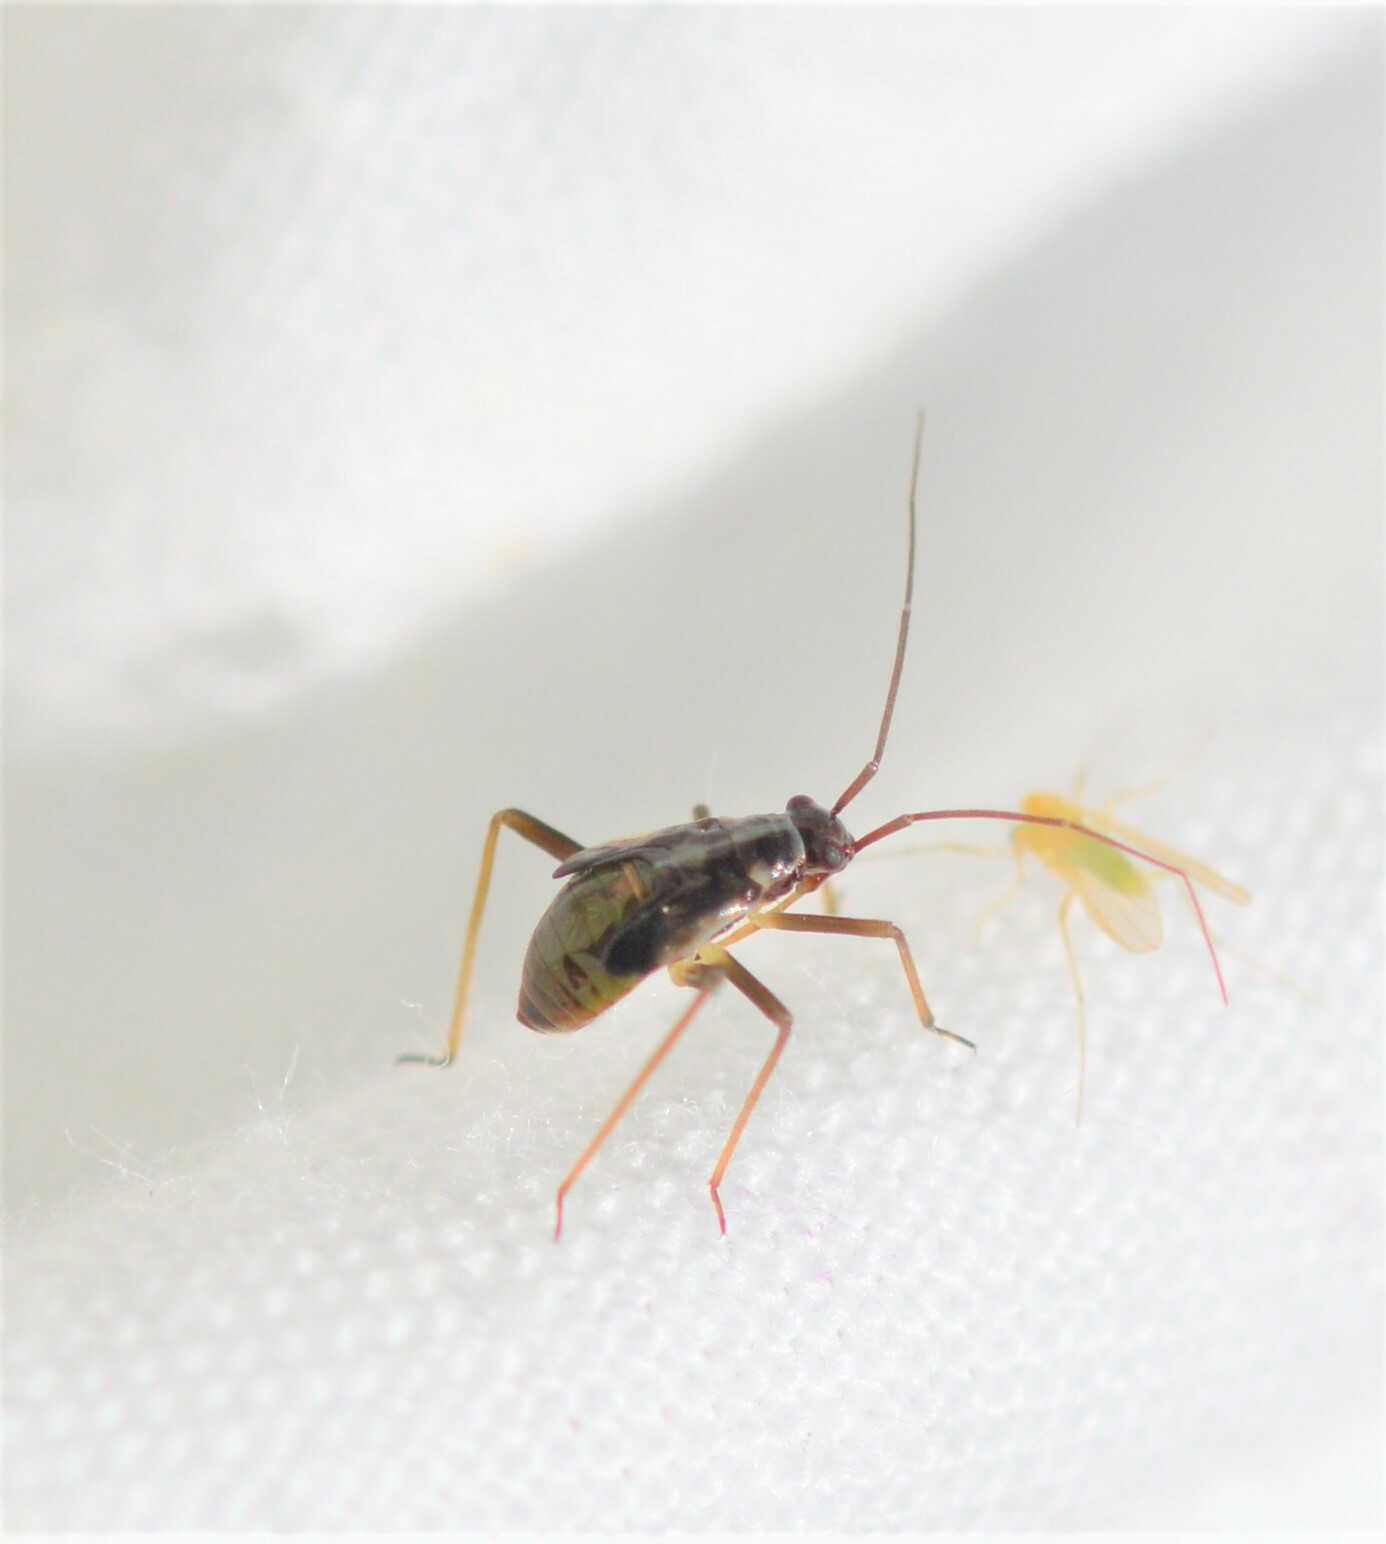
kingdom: Animalia
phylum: Arthropoda
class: Insecta
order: Hemiptera
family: Miridae
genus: Grypocoris
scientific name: Grypocoris stysi
